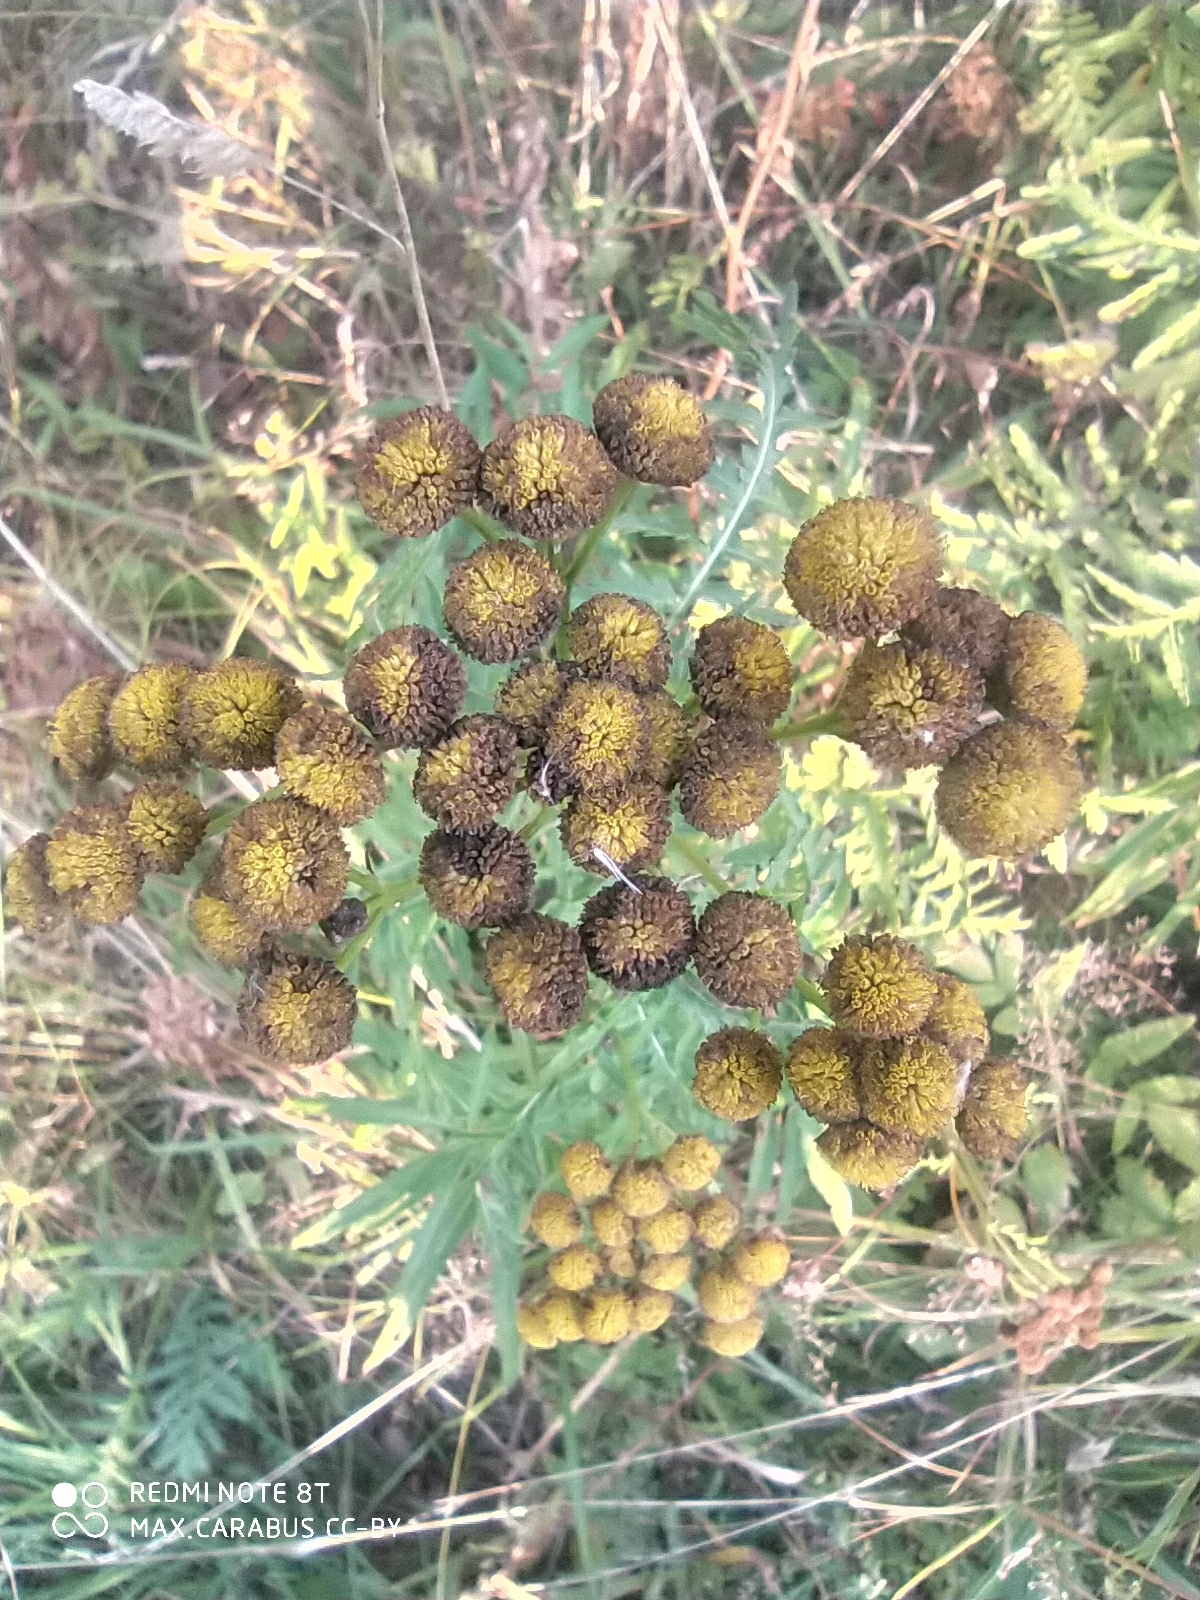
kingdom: Plantae
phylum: Tracheophyta
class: Magnoliopsida
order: Asterales
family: Asteraceae
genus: Tanacetum
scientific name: Tanacetum vulgare
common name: Common tansy
